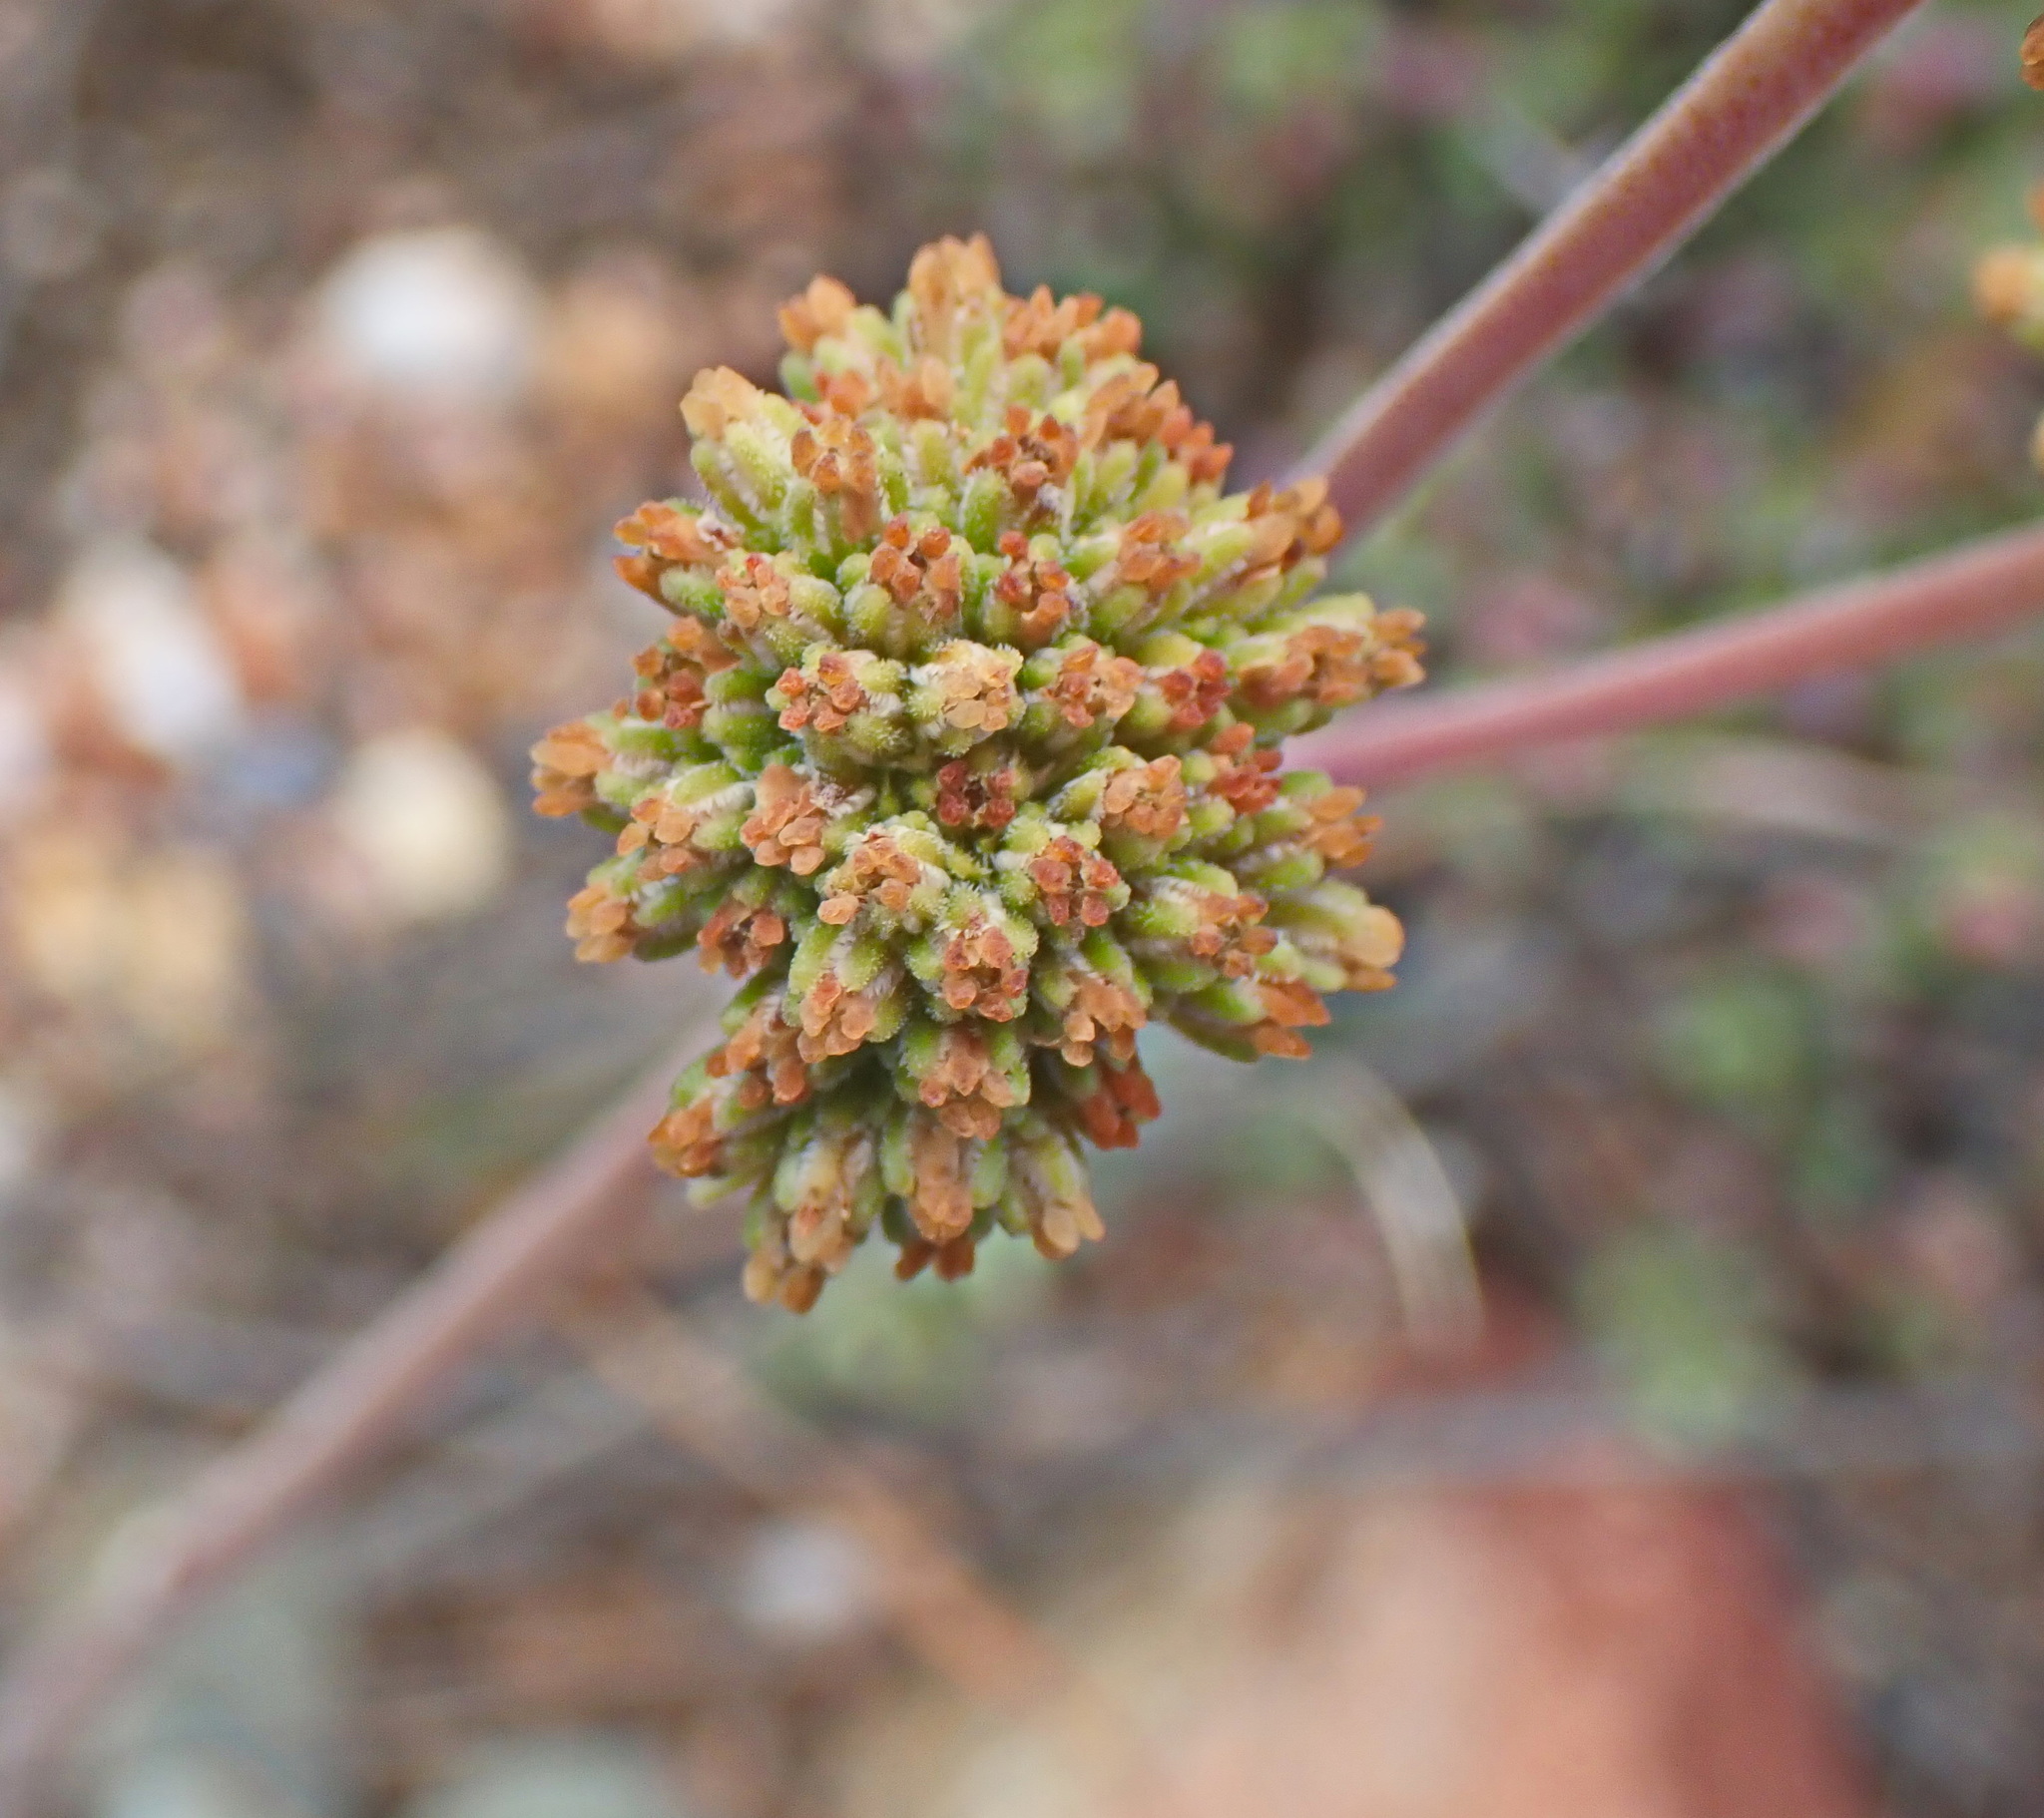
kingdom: Plantae
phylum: Tracheophyta
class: Magnoliopsida
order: Saxifragales
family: Crassulaceae
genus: Crassula
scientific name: Crassula cotyledonis
